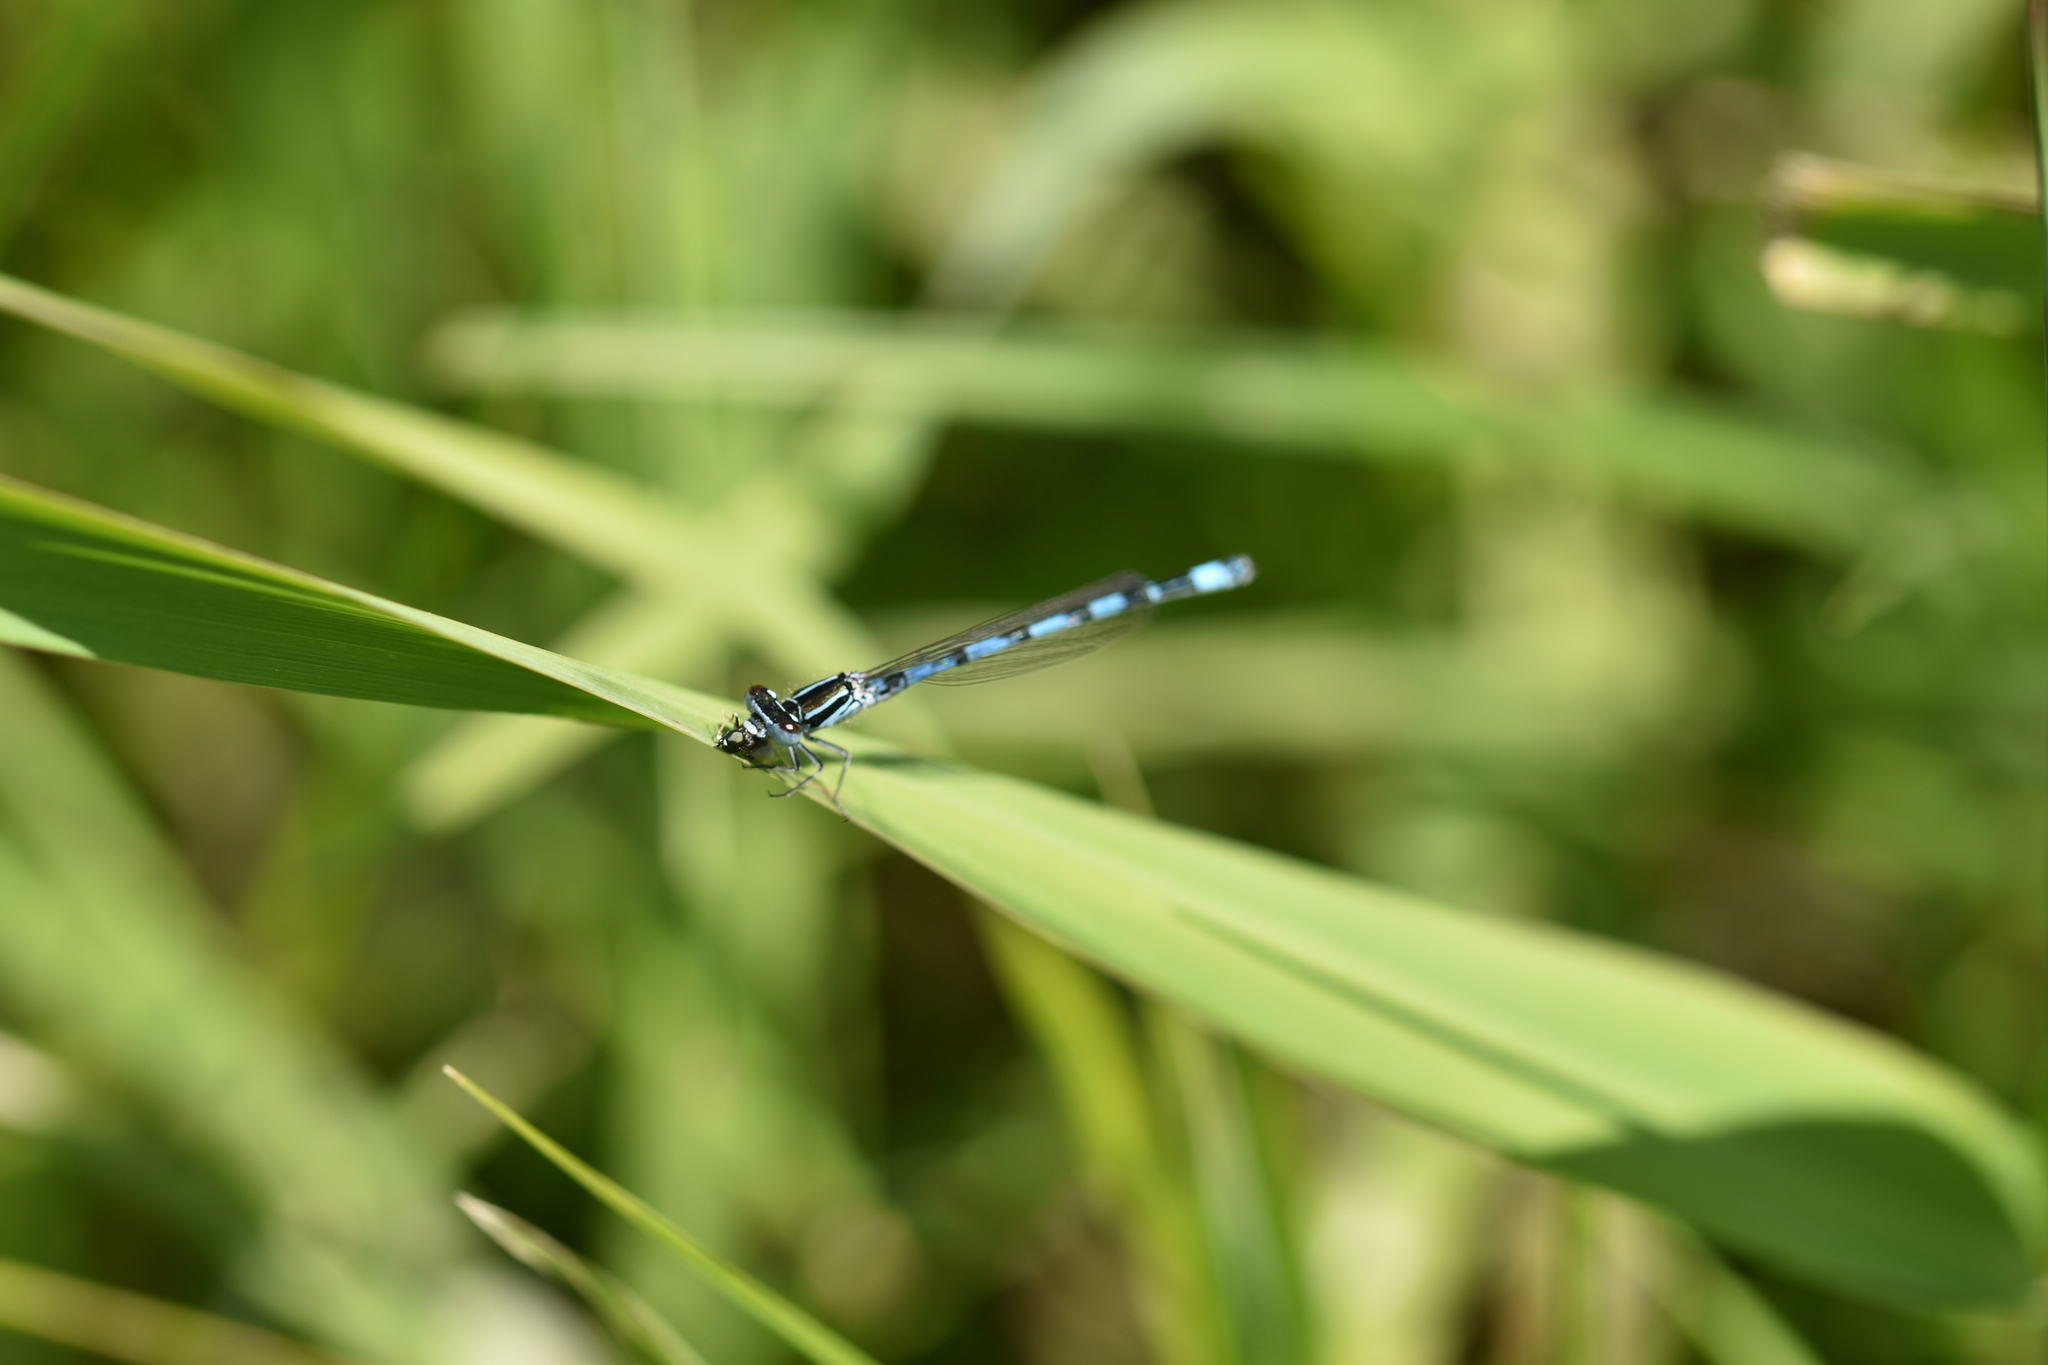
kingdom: Animalia
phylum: Arthropoda
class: Insecta
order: Odonata
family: Coenagrionidae
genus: Coenagrion
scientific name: Coenagrion mercuriale
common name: Southern damselfly
